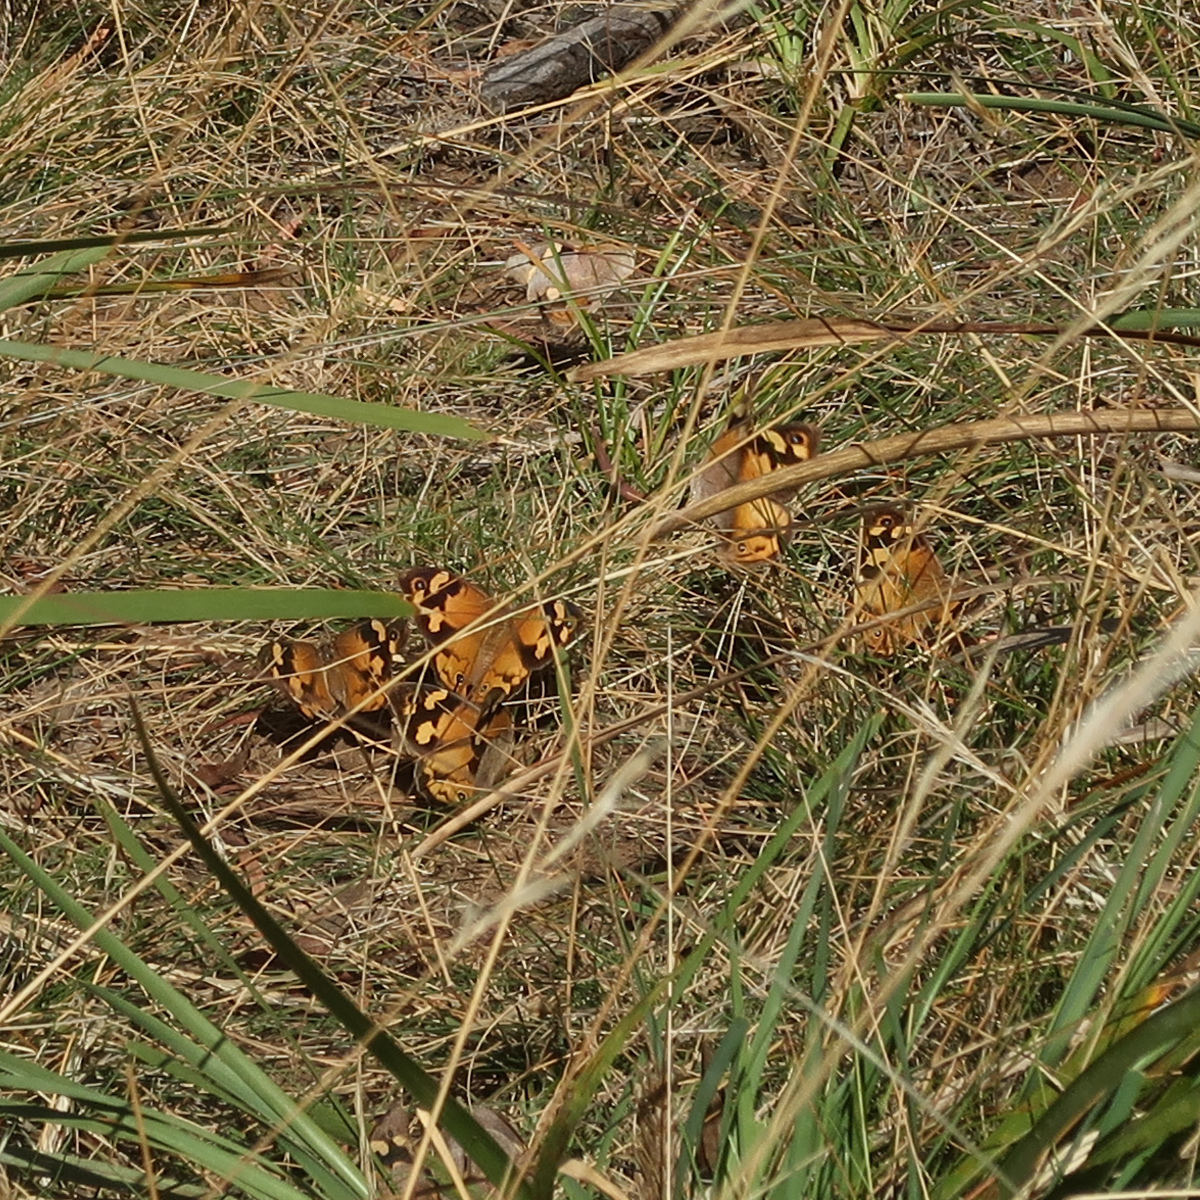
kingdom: Animalia
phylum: Arthropoda
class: Insecta
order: Lepidoptera
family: Nymphalidae
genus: Heteronympha
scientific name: Heteronympha merope
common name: Common brown
